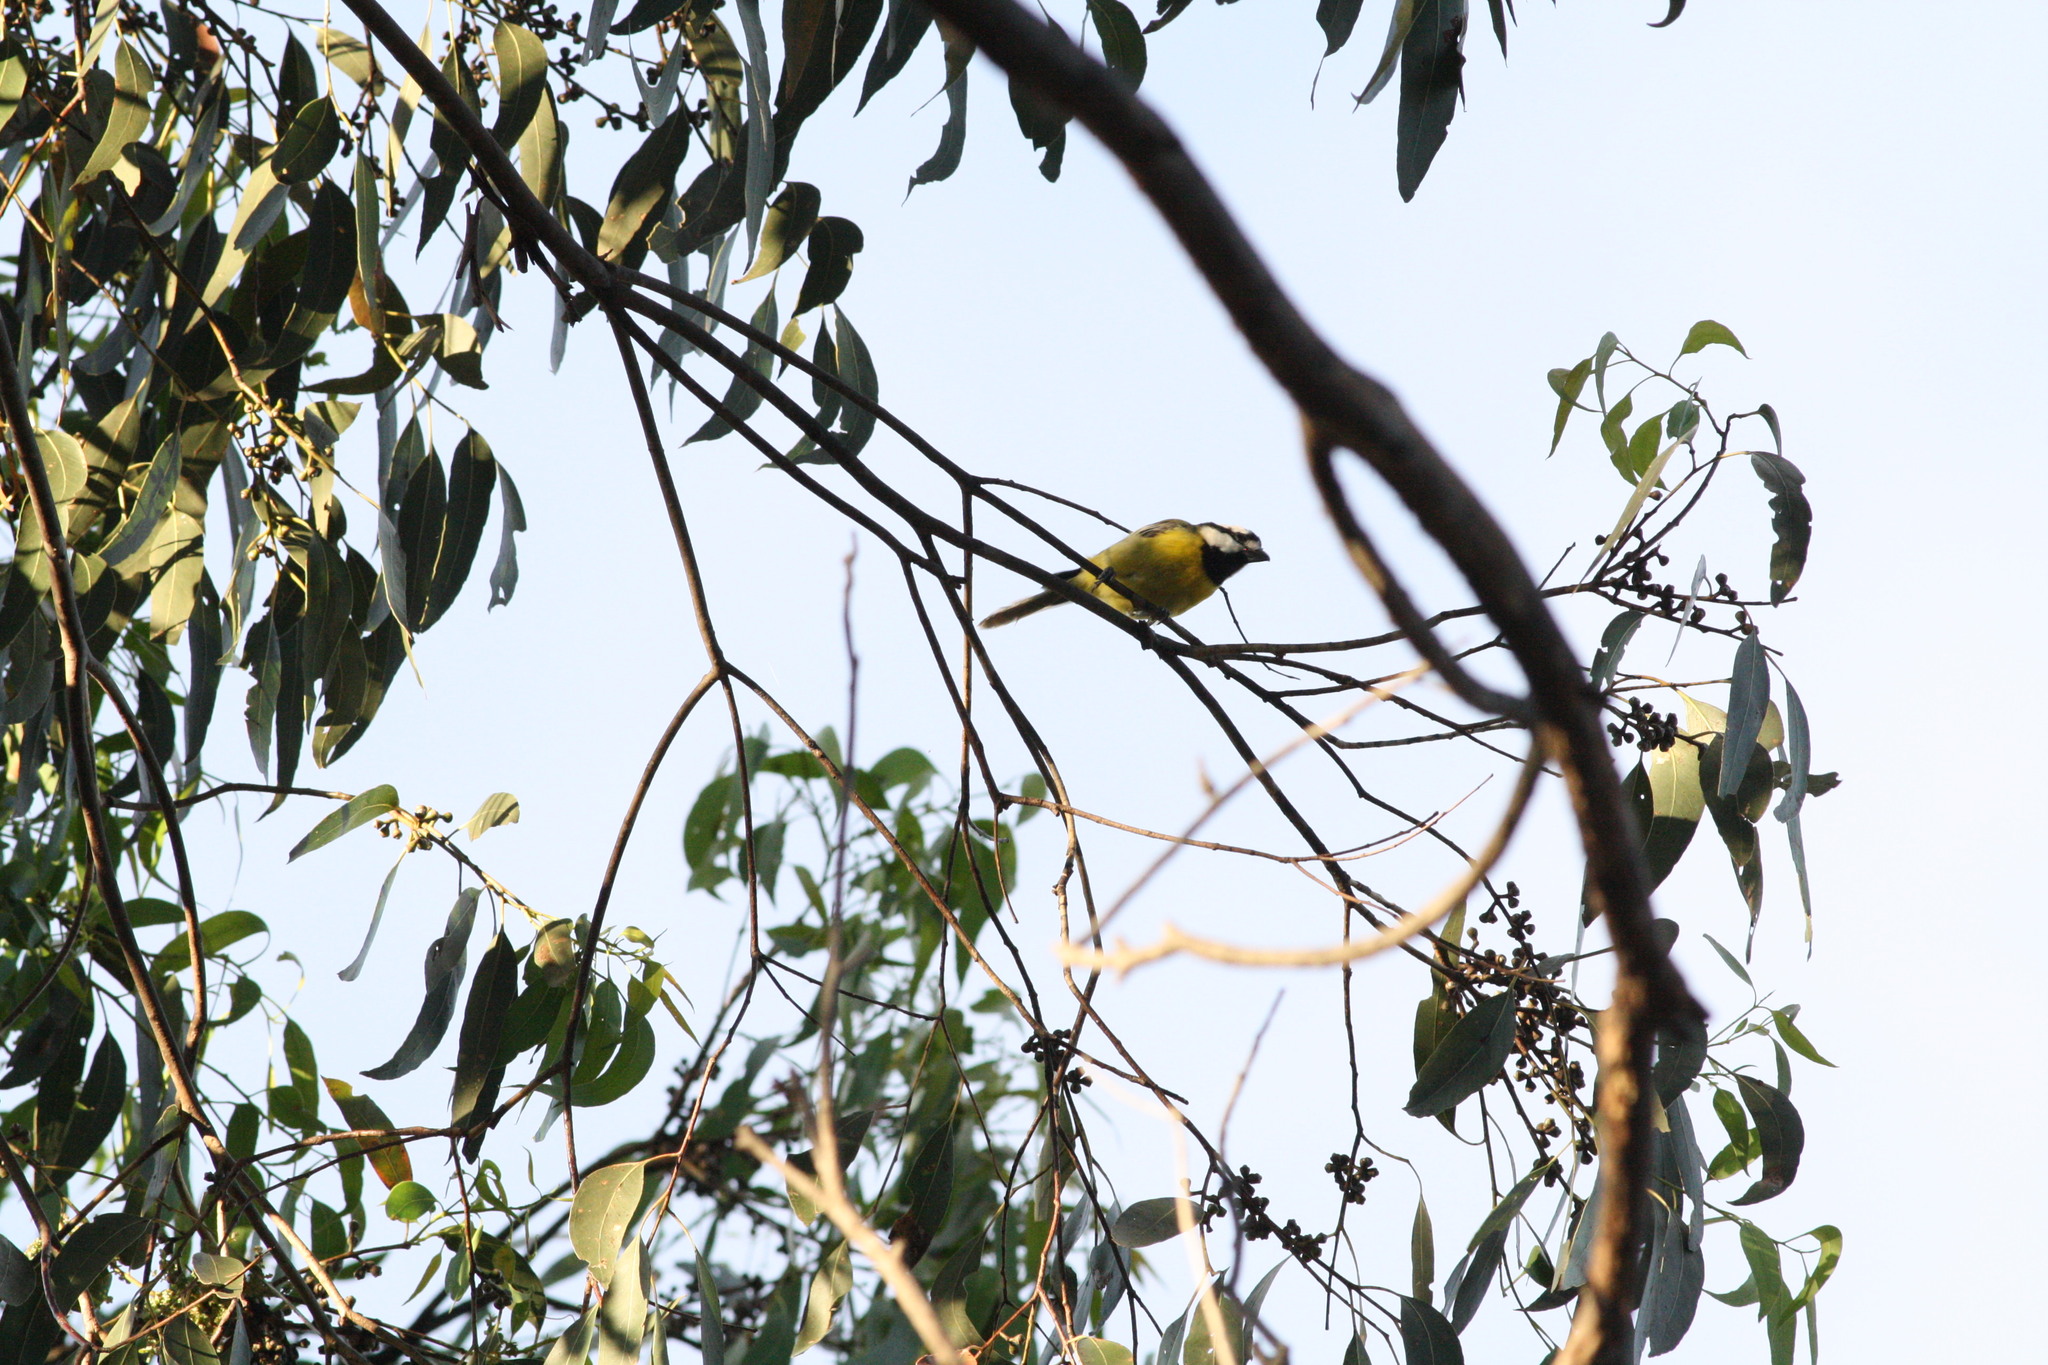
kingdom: Animalia
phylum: Chordata
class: Aves
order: Passeriformes
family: Pachycephalidae
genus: Falcunculus
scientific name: Falcunculus frontatus
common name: Crested shriketit
